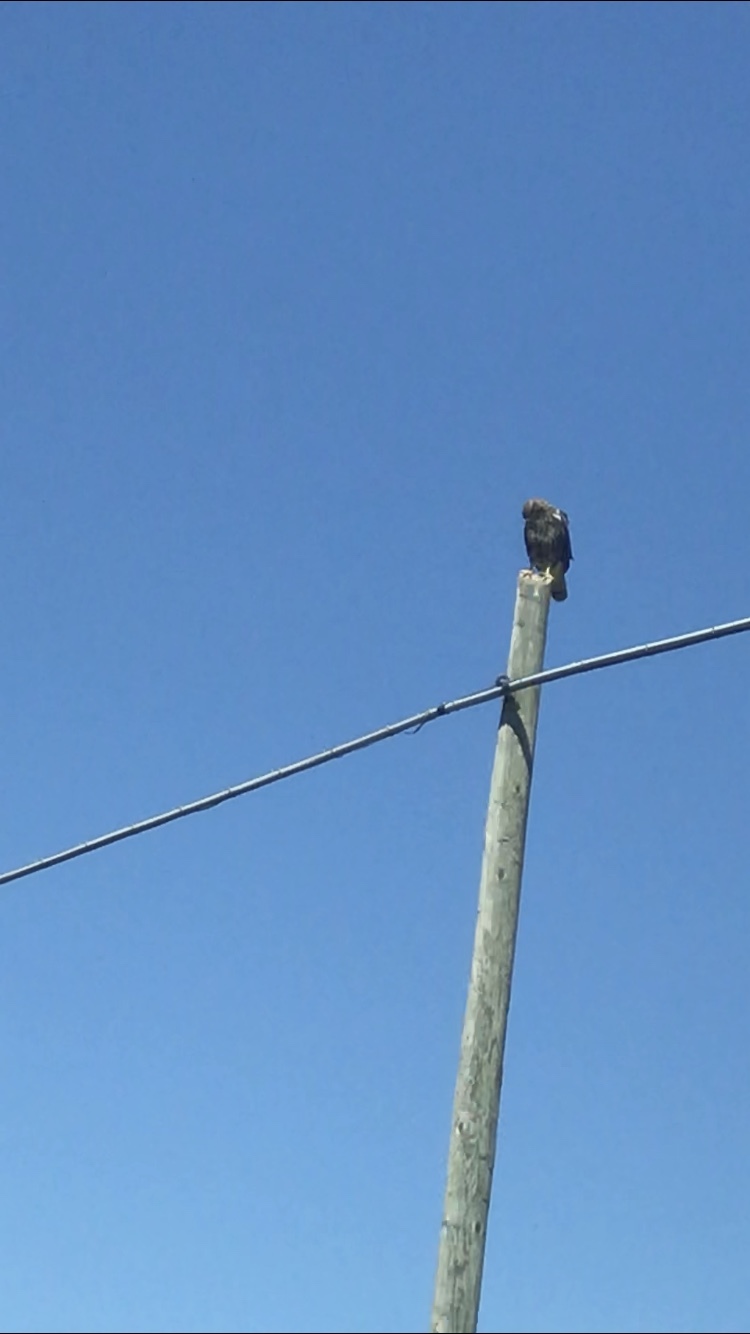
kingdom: Animalia
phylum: Chordata
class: Aves
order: Accipitriformes
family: Accipitridae
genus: Buteo
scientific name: Buteo buteo
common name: Common buzzard
